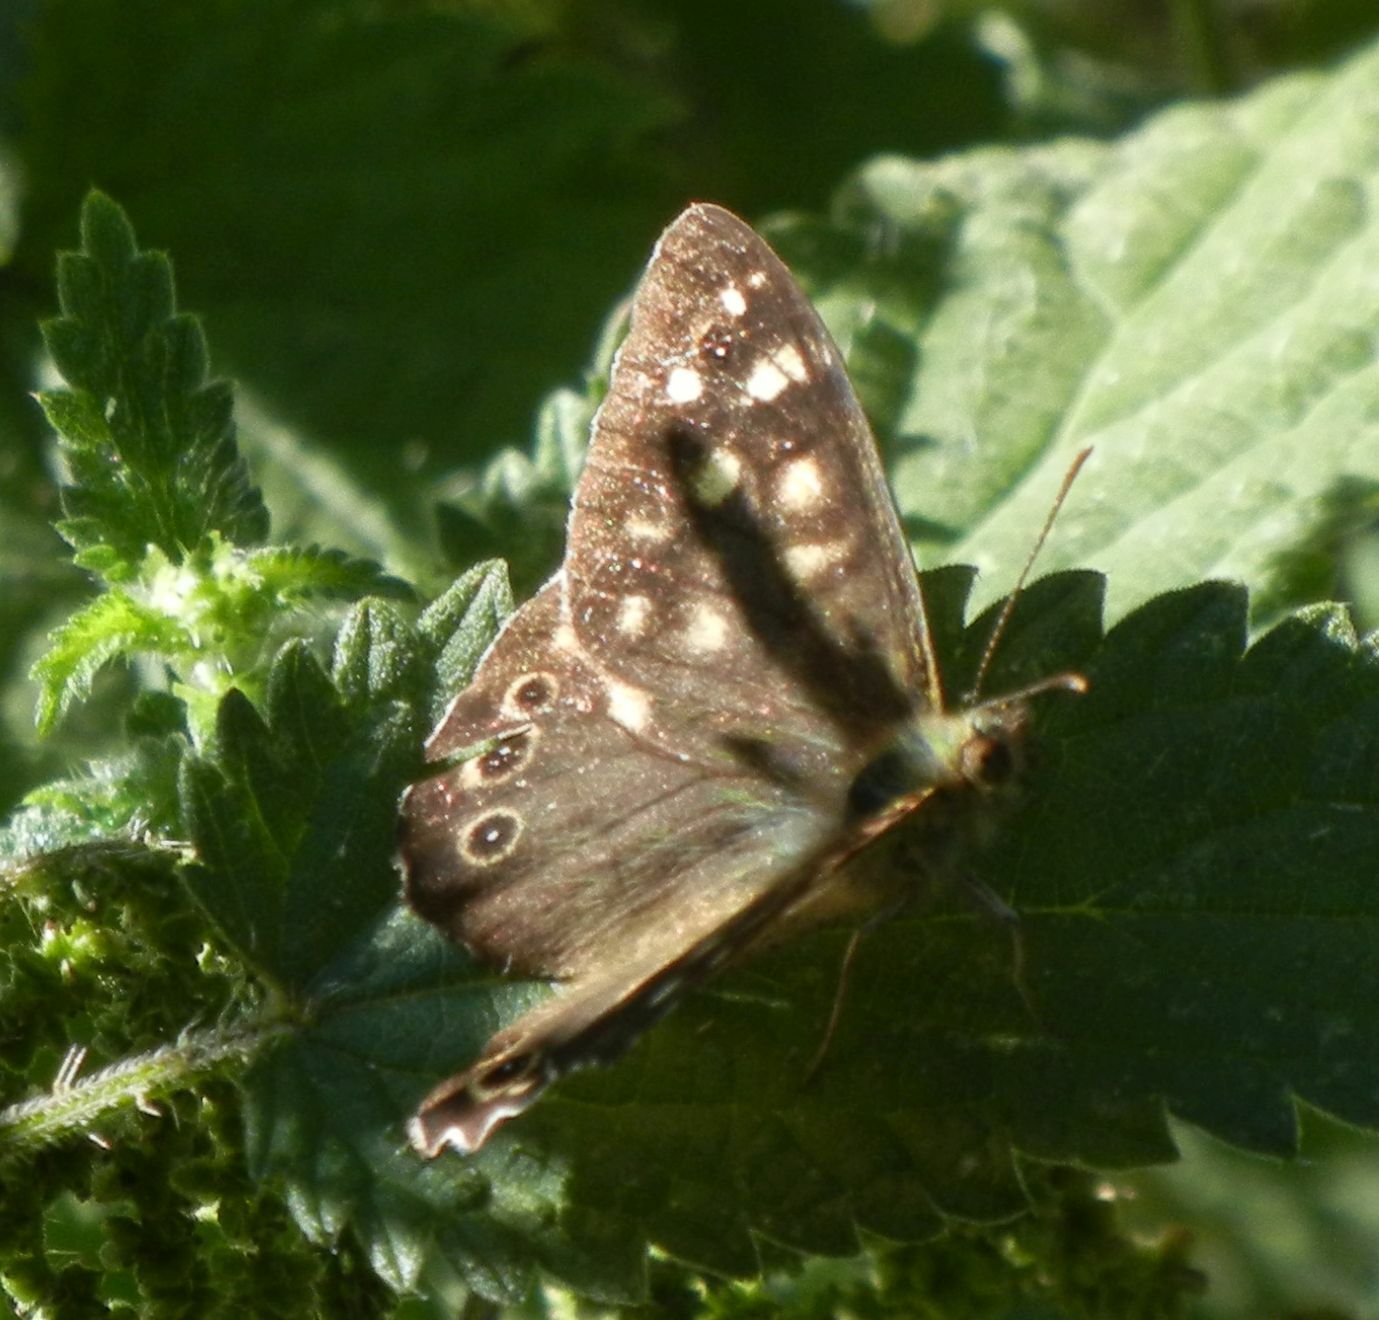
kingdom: Animalia
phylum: Arthropoda
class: Insecta
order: Lepidoptera
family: Nymphalidae
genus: Pararge
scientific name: Pararge aegeria
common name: Speckled wood
